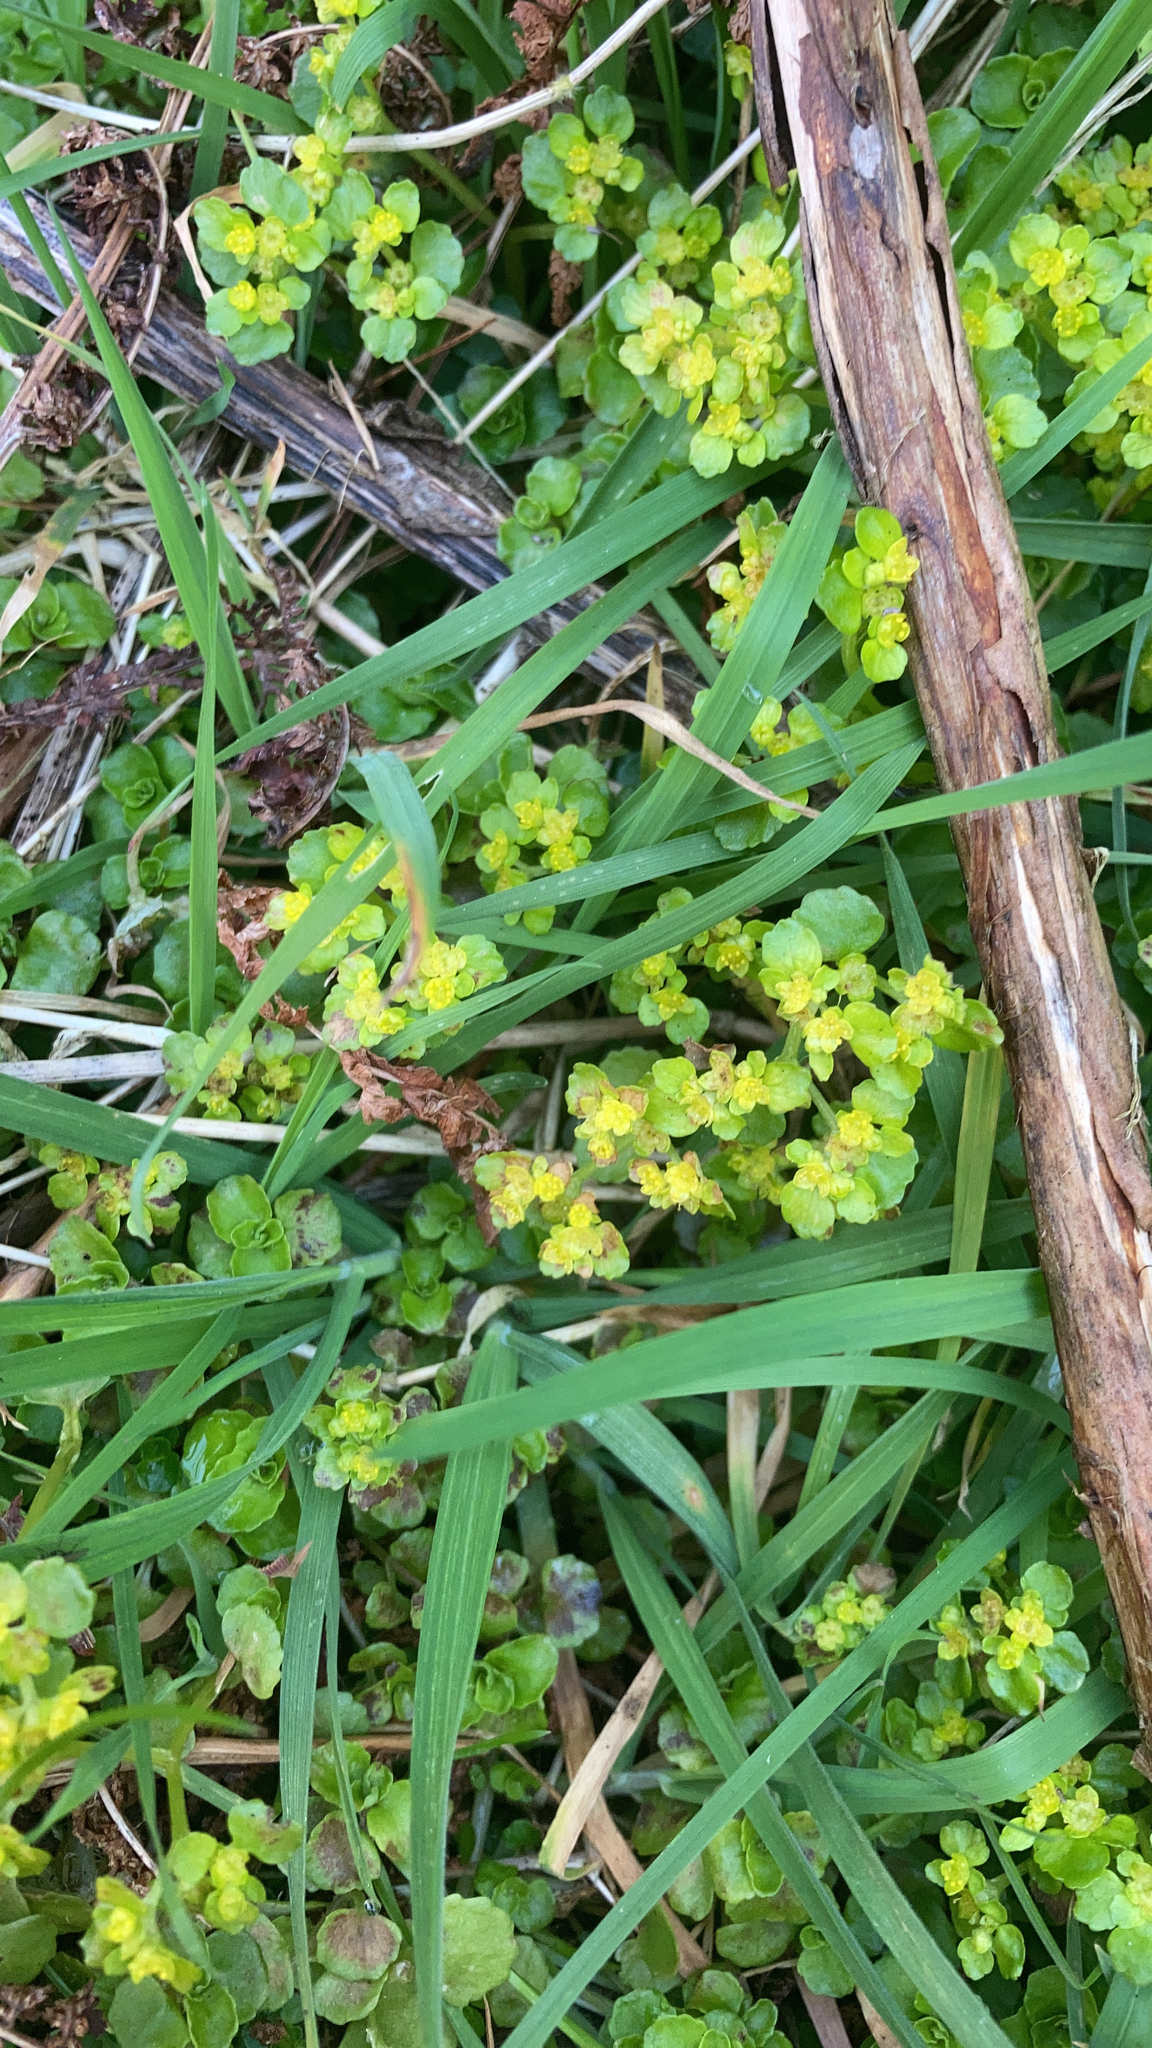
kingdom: Plantae
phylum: Tracheophyta
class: Magnoliopsida
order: Saxifragales
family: Saxifragaceae
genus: Chrysosplenium
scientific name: Chrysosplenium oppositifolium
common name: Opposite-leaved golden-saxifrage
